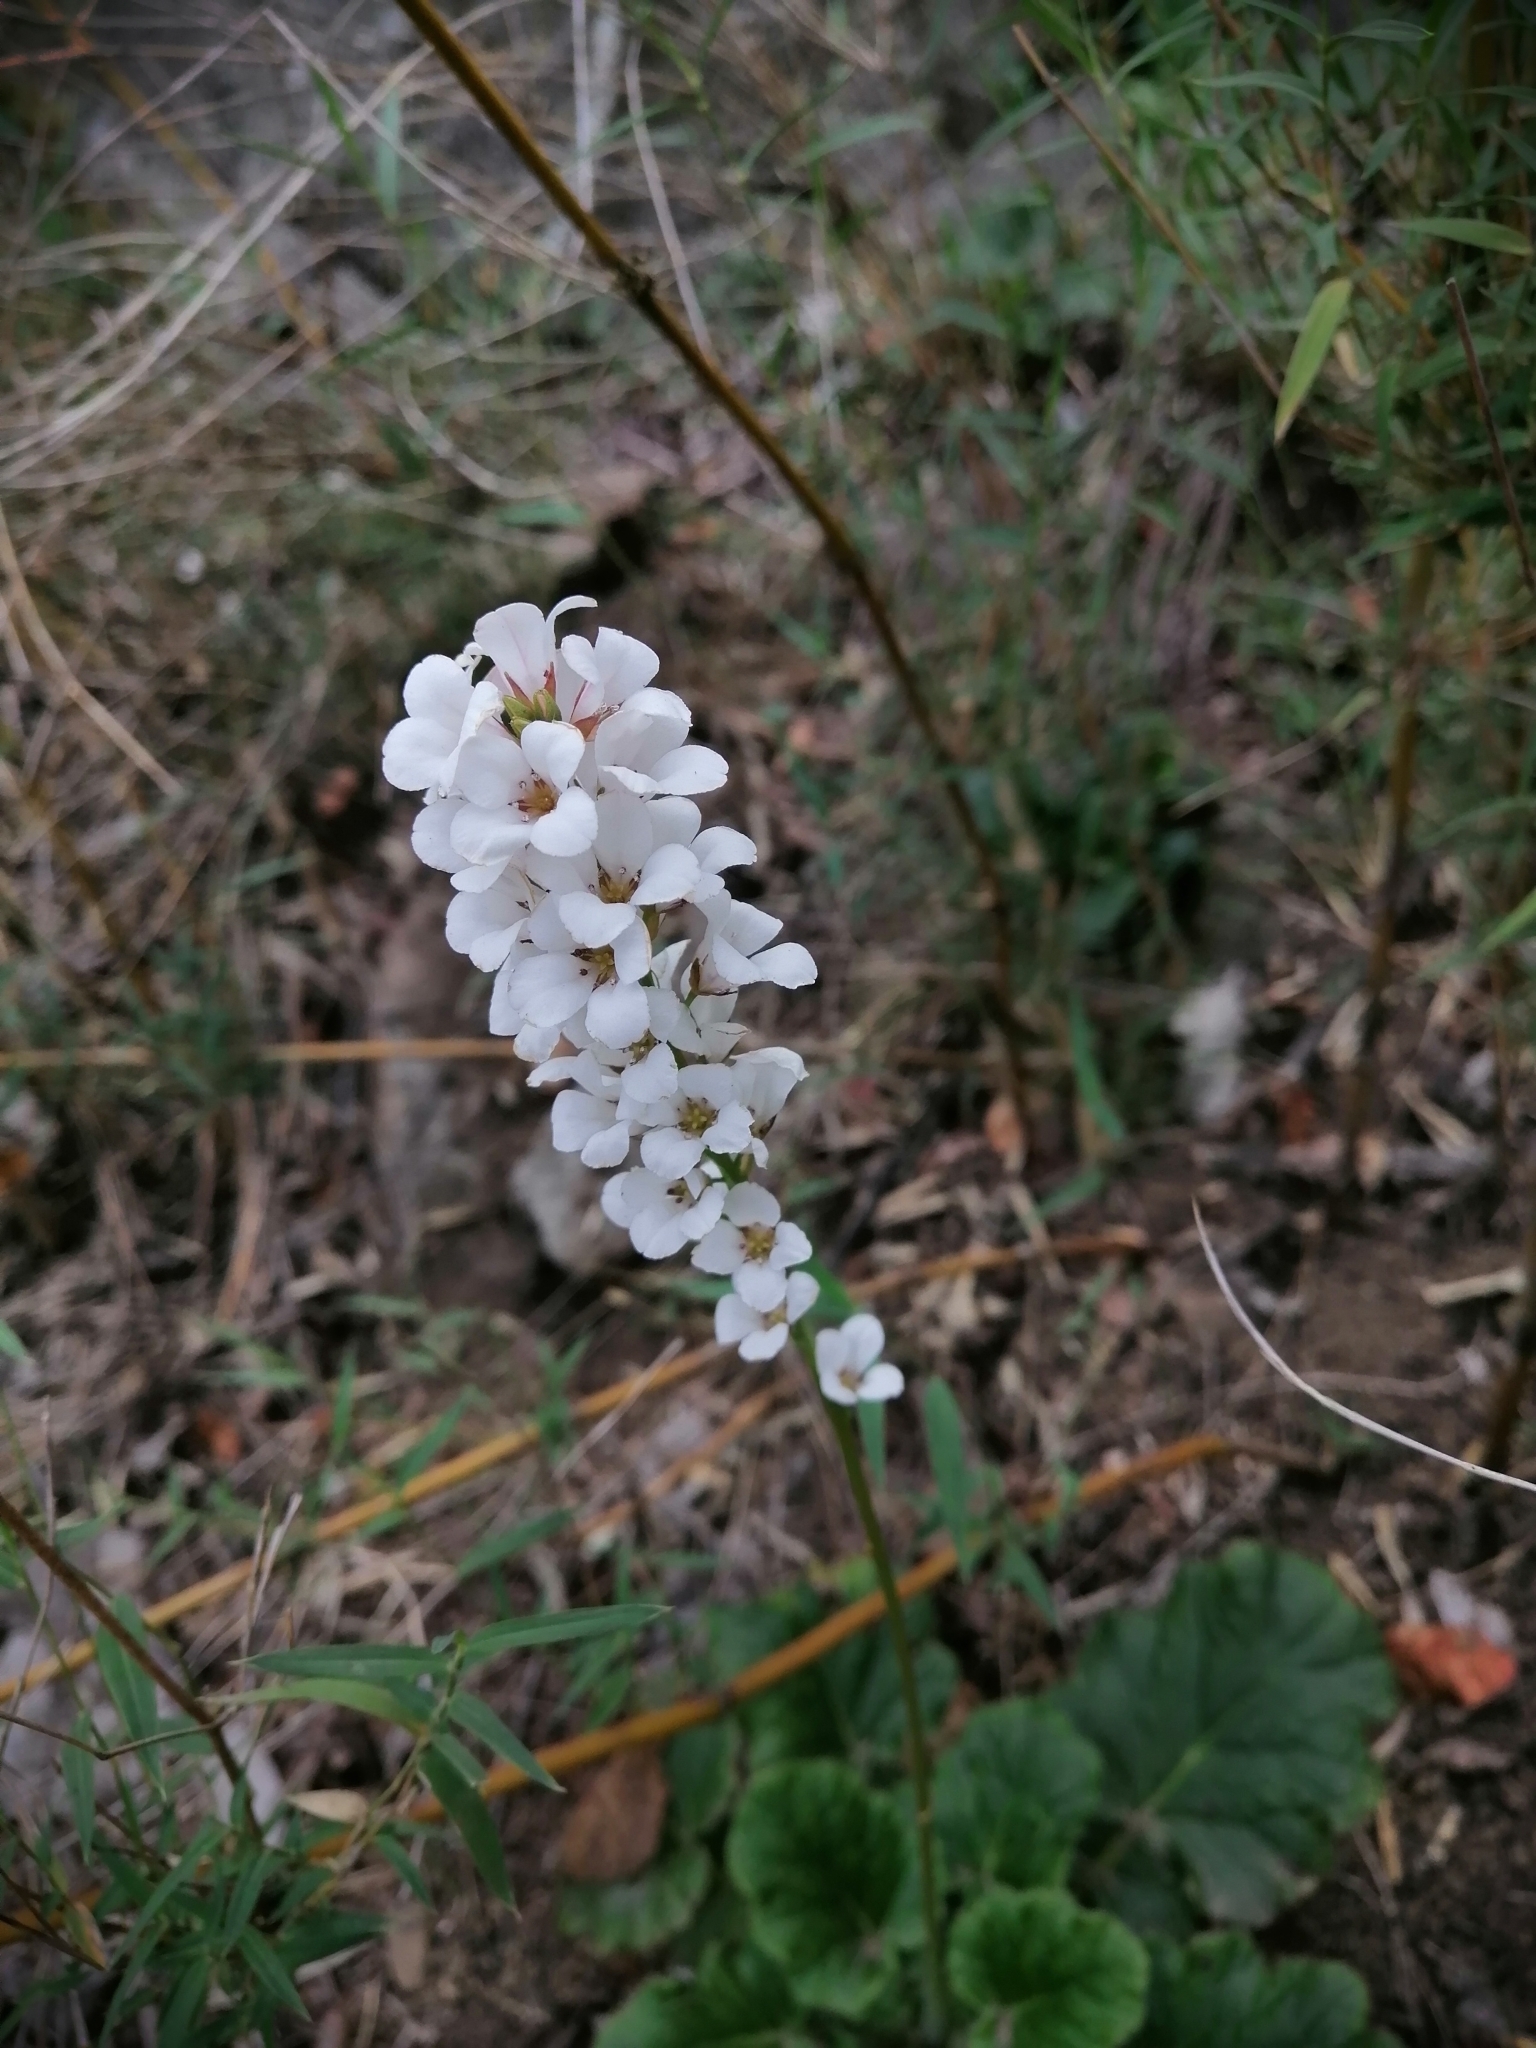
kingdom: Plantae
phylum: Tracheophyta
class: Magnoliopsida
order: Geraniales
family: Francoaceae
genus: Francoa
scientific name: Francoa appendiculata
